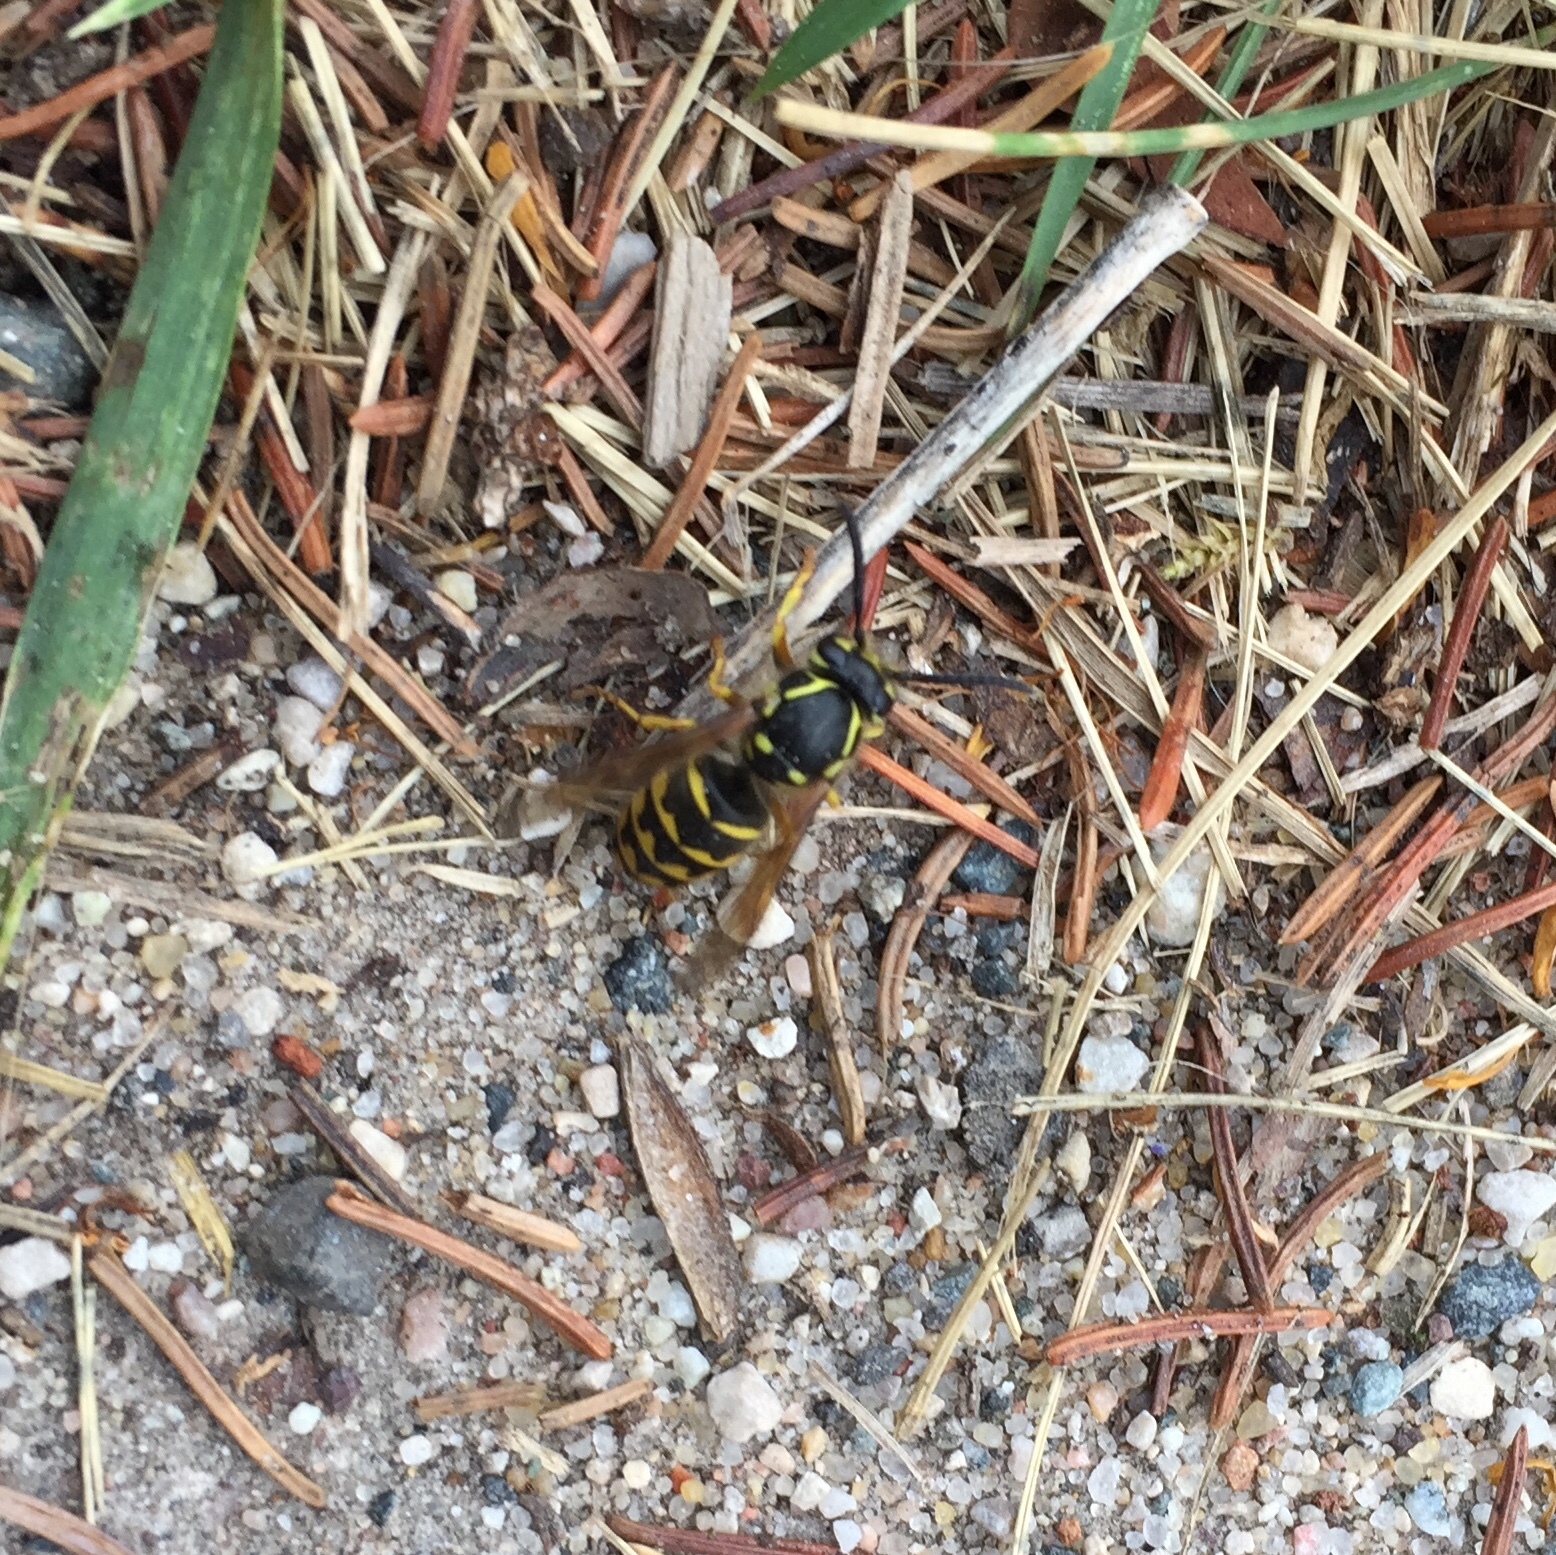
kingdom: Animalia
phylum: Arthropoda
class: Insecta
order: Hymenoptera
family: Vespidae
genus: Dolichovespula
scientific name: Dolichovespula arenaria
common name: Aerial yellowjacket
